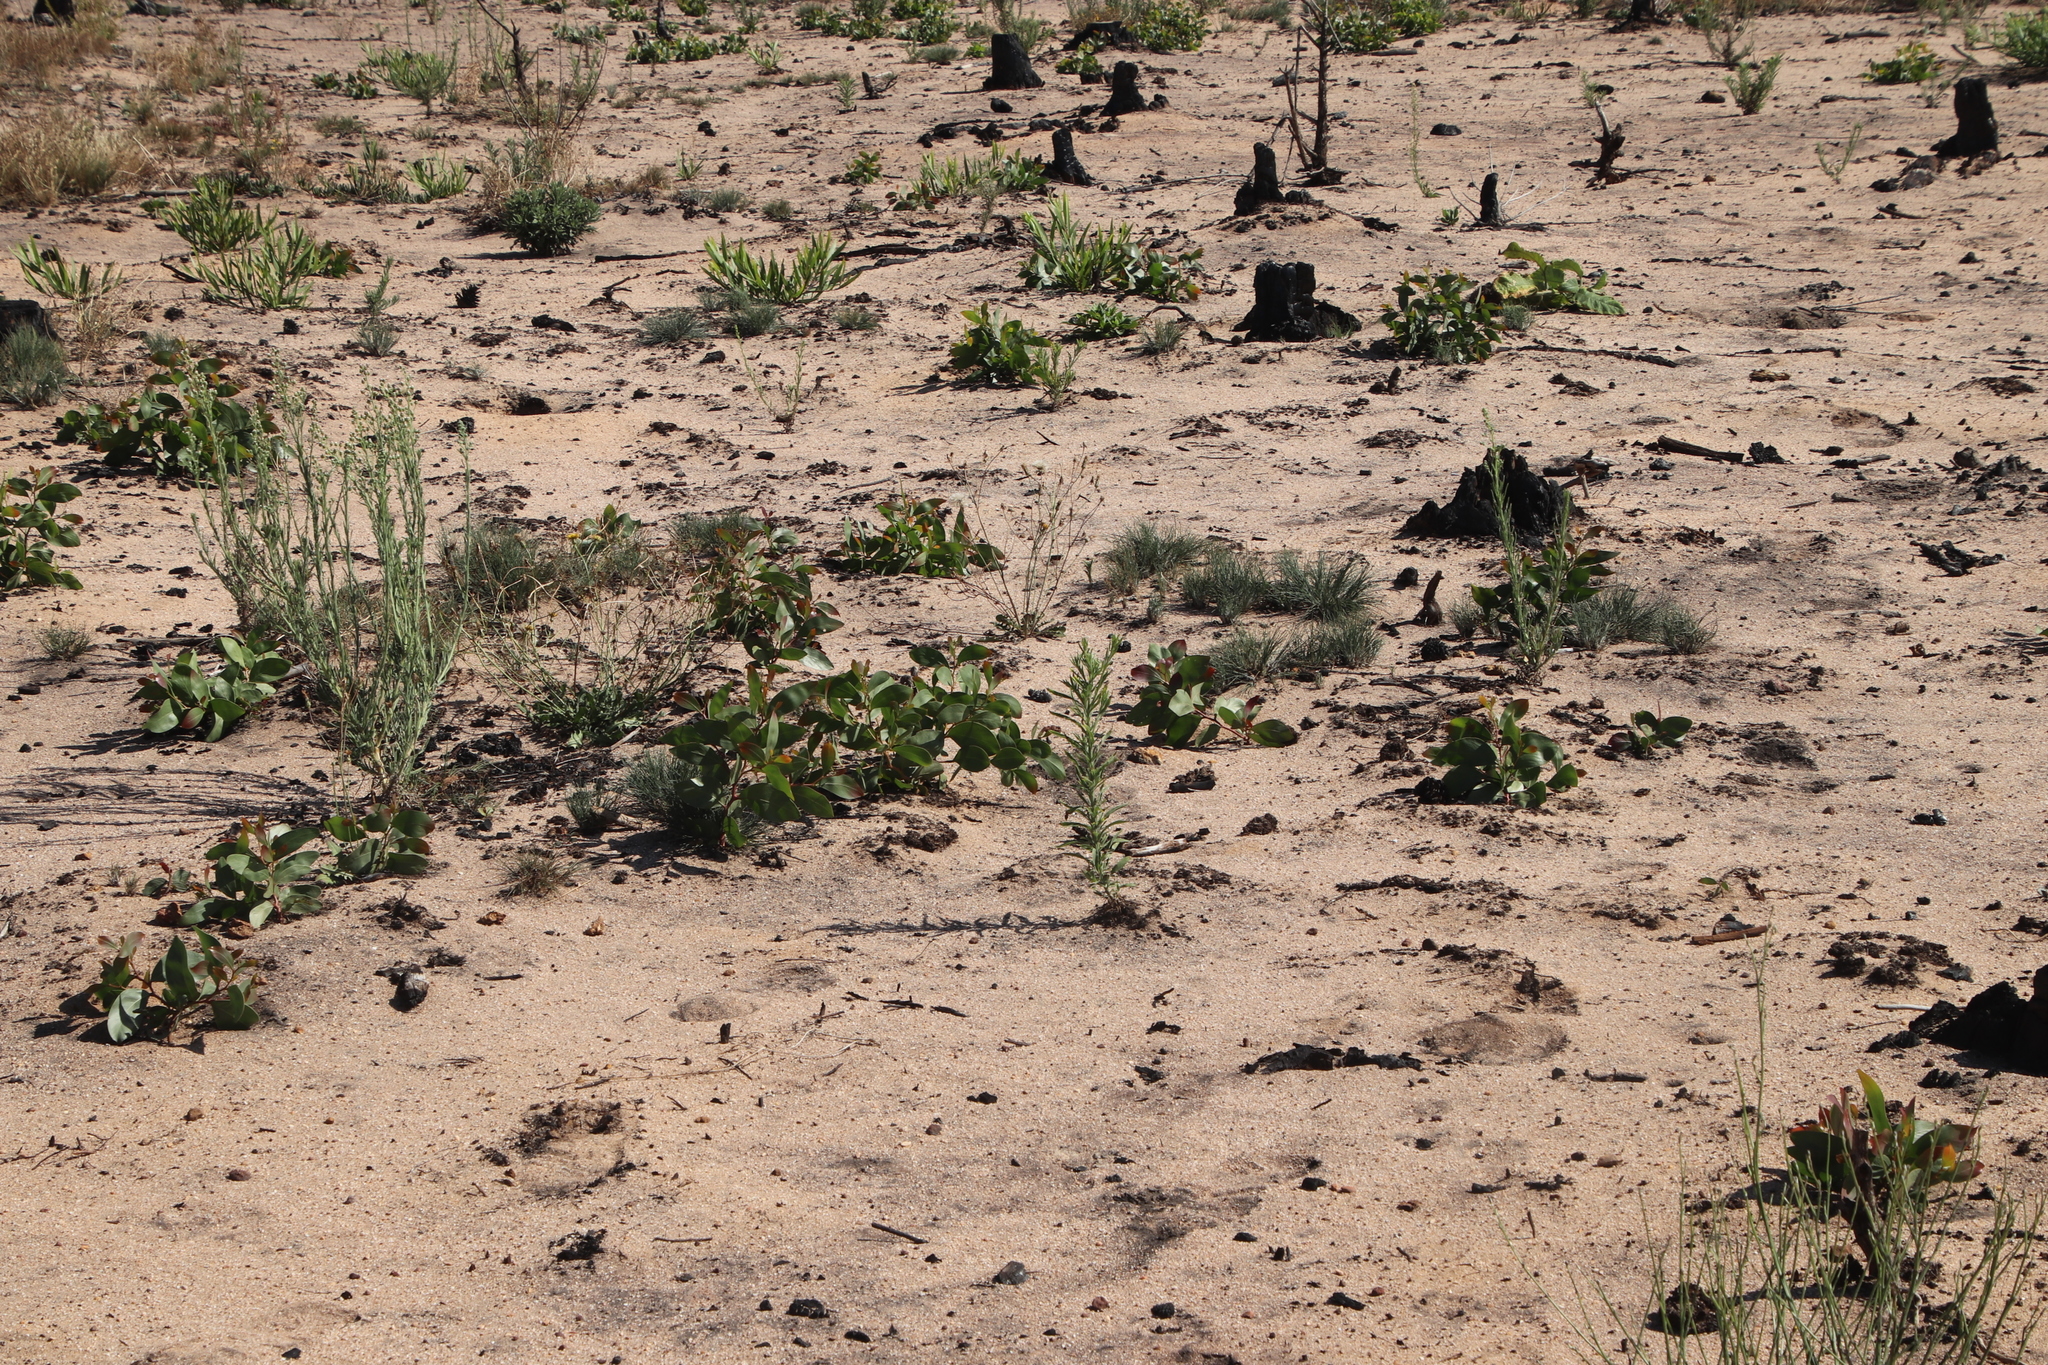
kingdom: Plantae
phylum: Tracheophyta
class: Magnoliopsida
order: Fabales
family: Fabaceae
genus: Acacia
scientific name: Acacia pycnantha
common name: Golden wattle
